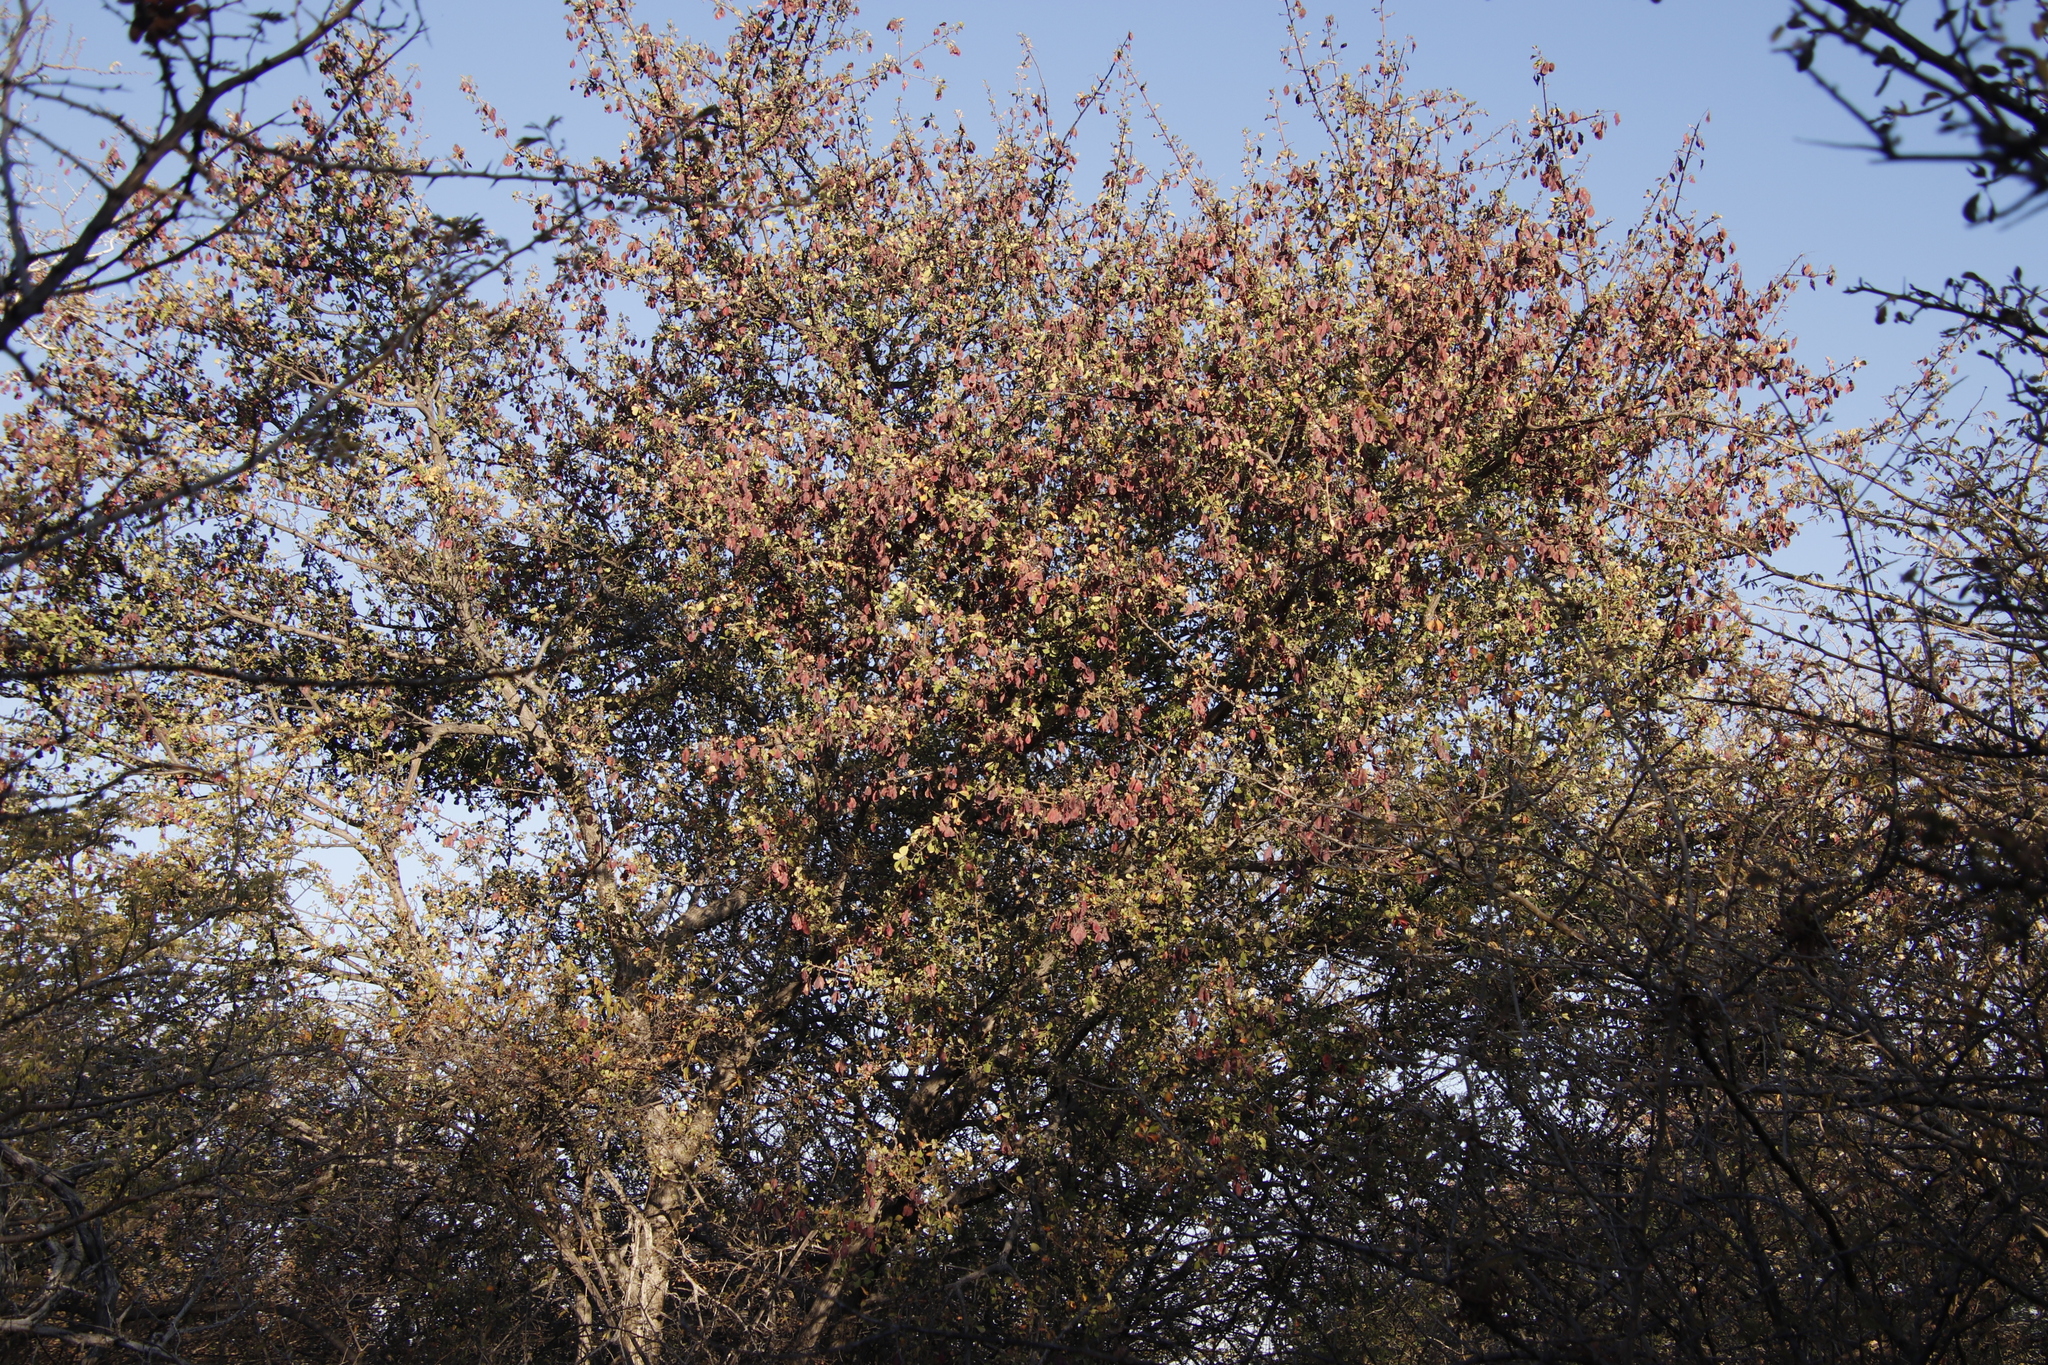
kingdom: Plantae
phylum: Tracheophyta
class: Magnoliopsida
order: Myrtales
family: Combretaceae
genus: Terminalia
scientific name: Terminalia prunioides
